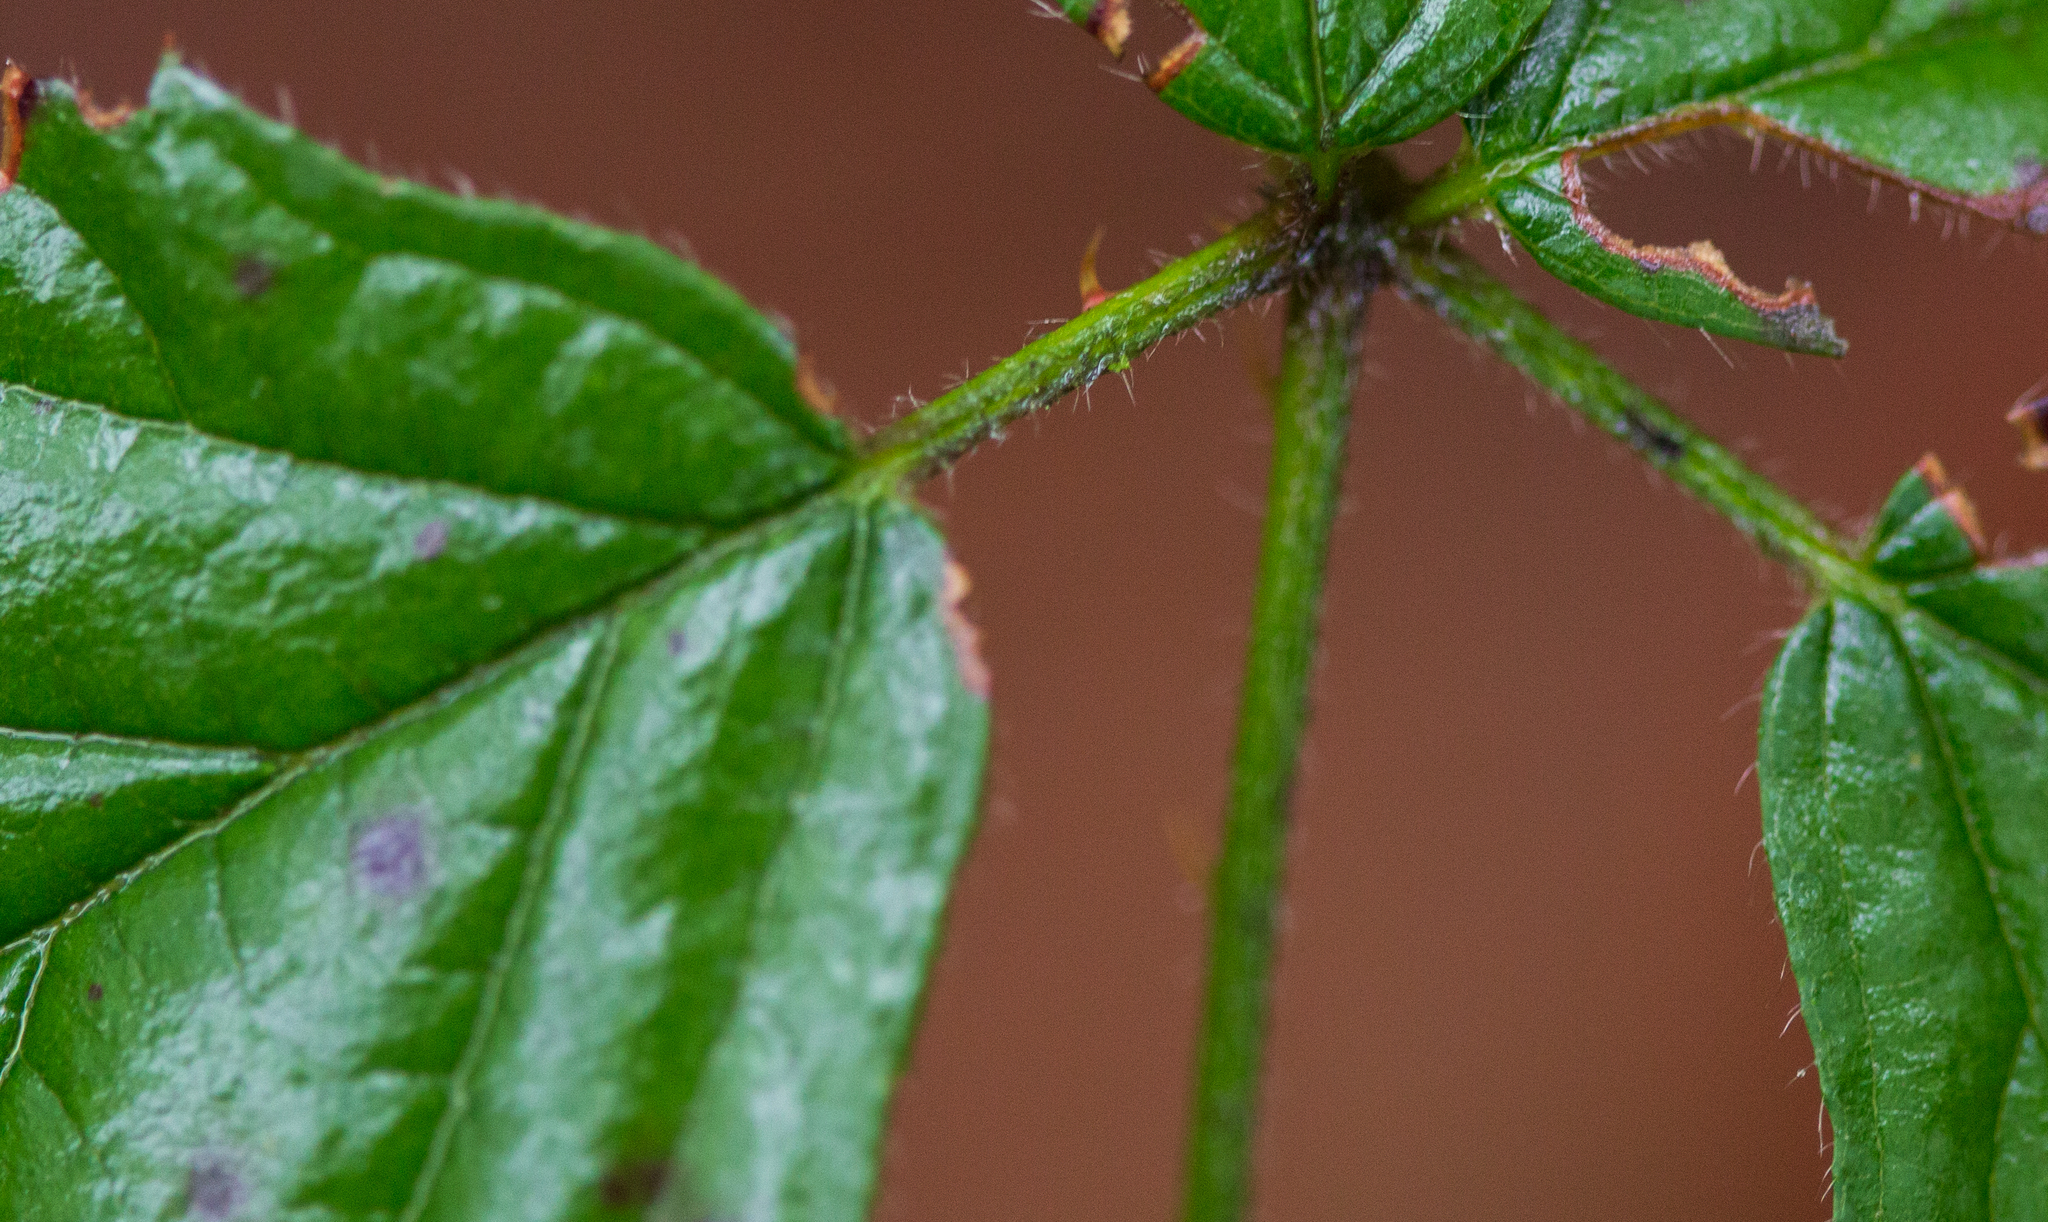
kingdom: Plantae
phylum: Tracheophyta
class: Magnoliopsida
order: Rosales
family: Rosaceae
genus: Rubus
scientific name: Rubus armeniacus
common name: Himalayan blackberry
